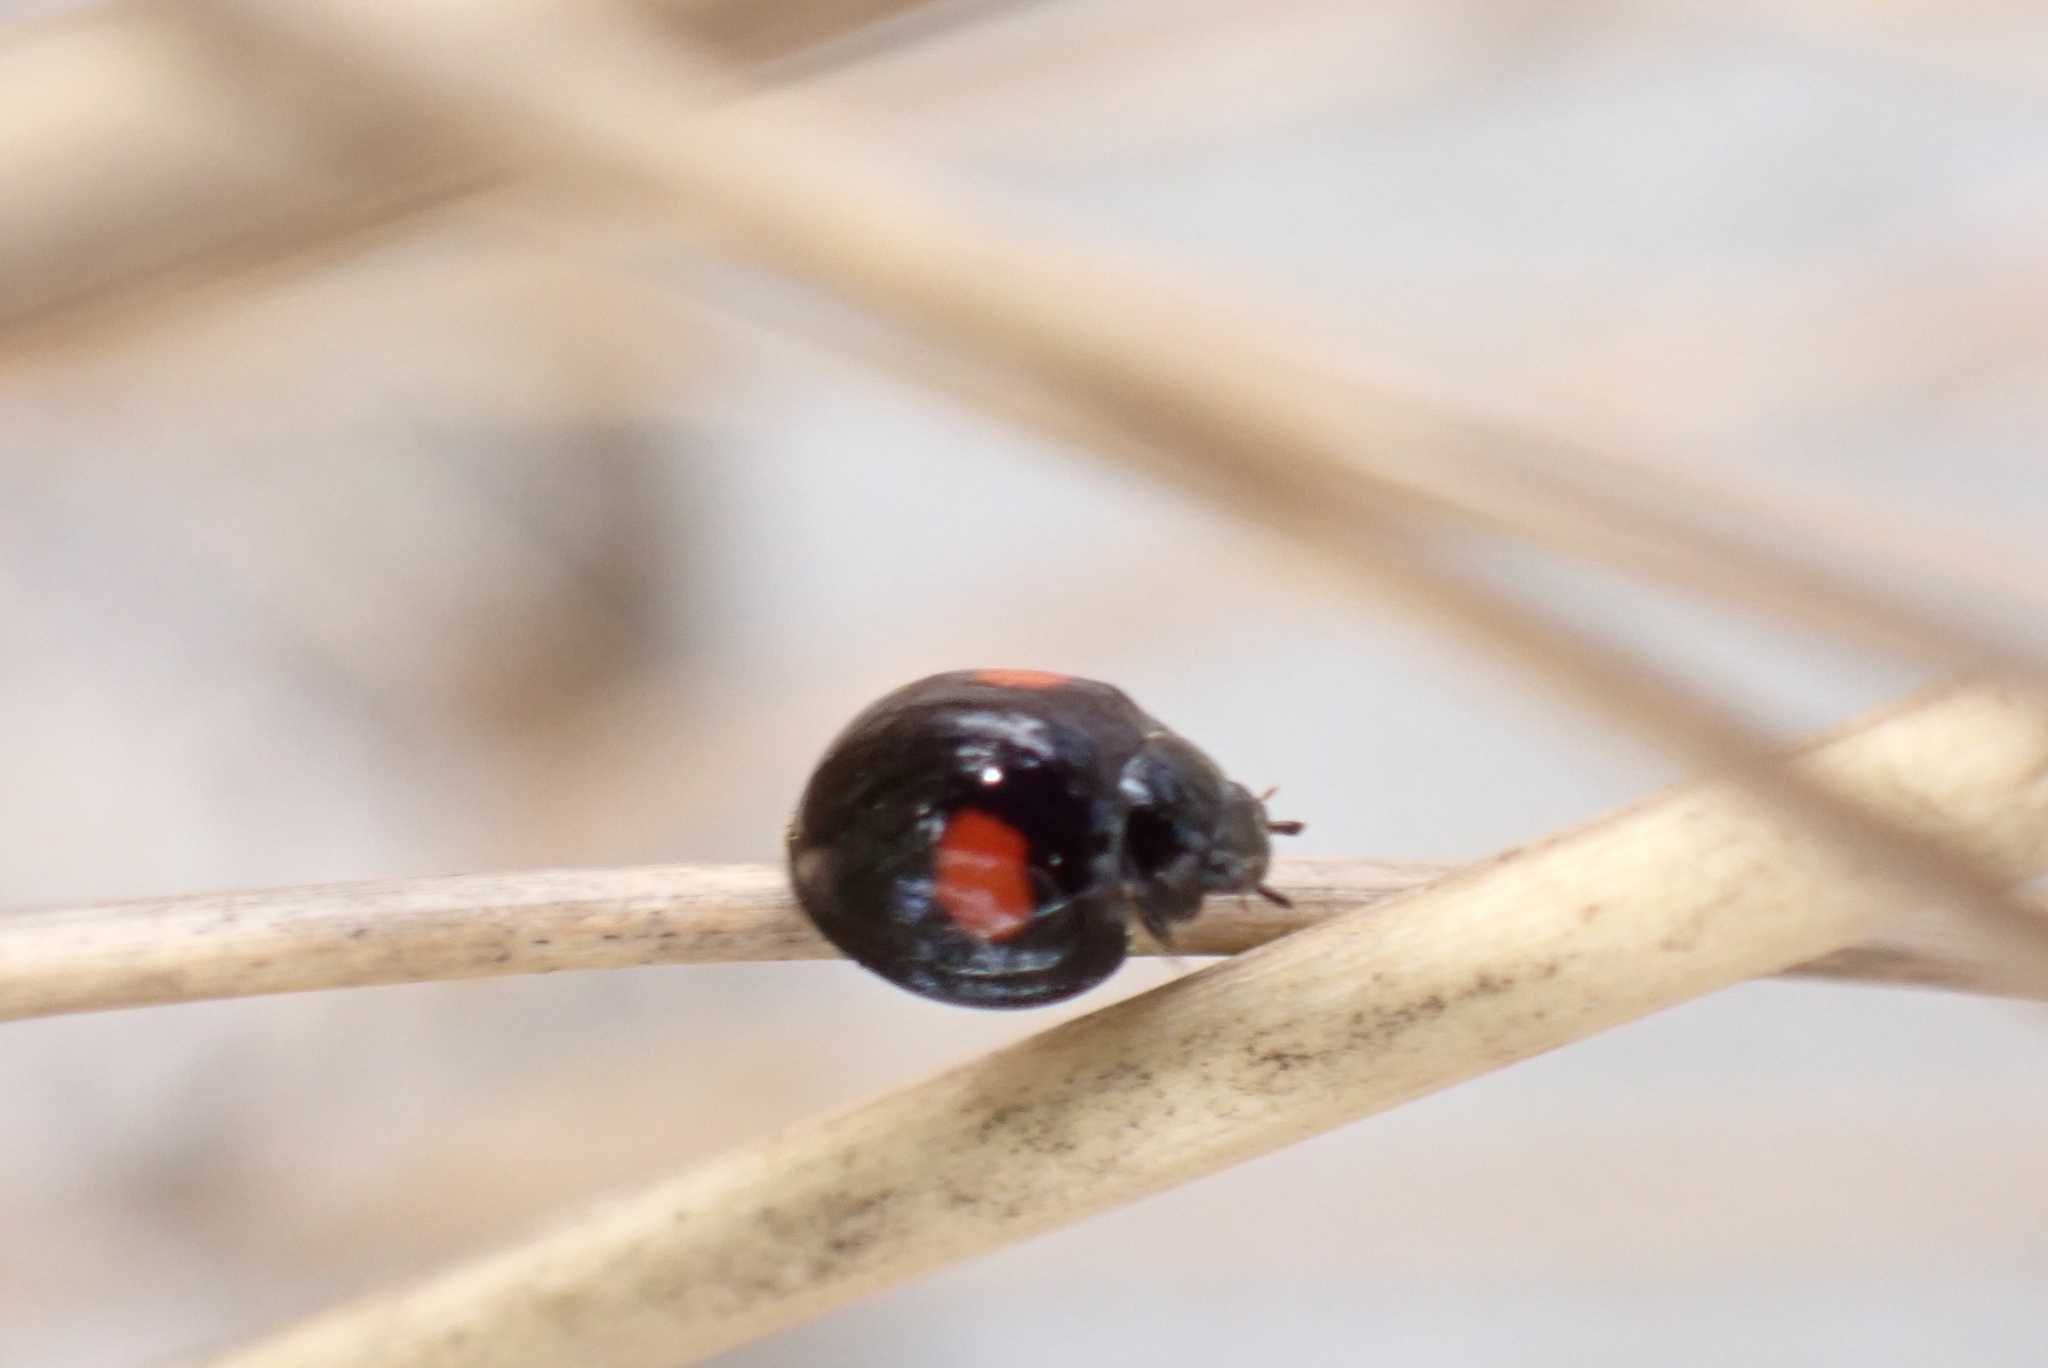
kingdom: Animalia
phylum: Arthropoda
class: Insecta
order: Coleoptera
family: Coccinellidae
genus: Chilocorus
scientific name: Chilocorus cacti
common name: Cactus lady beetle
